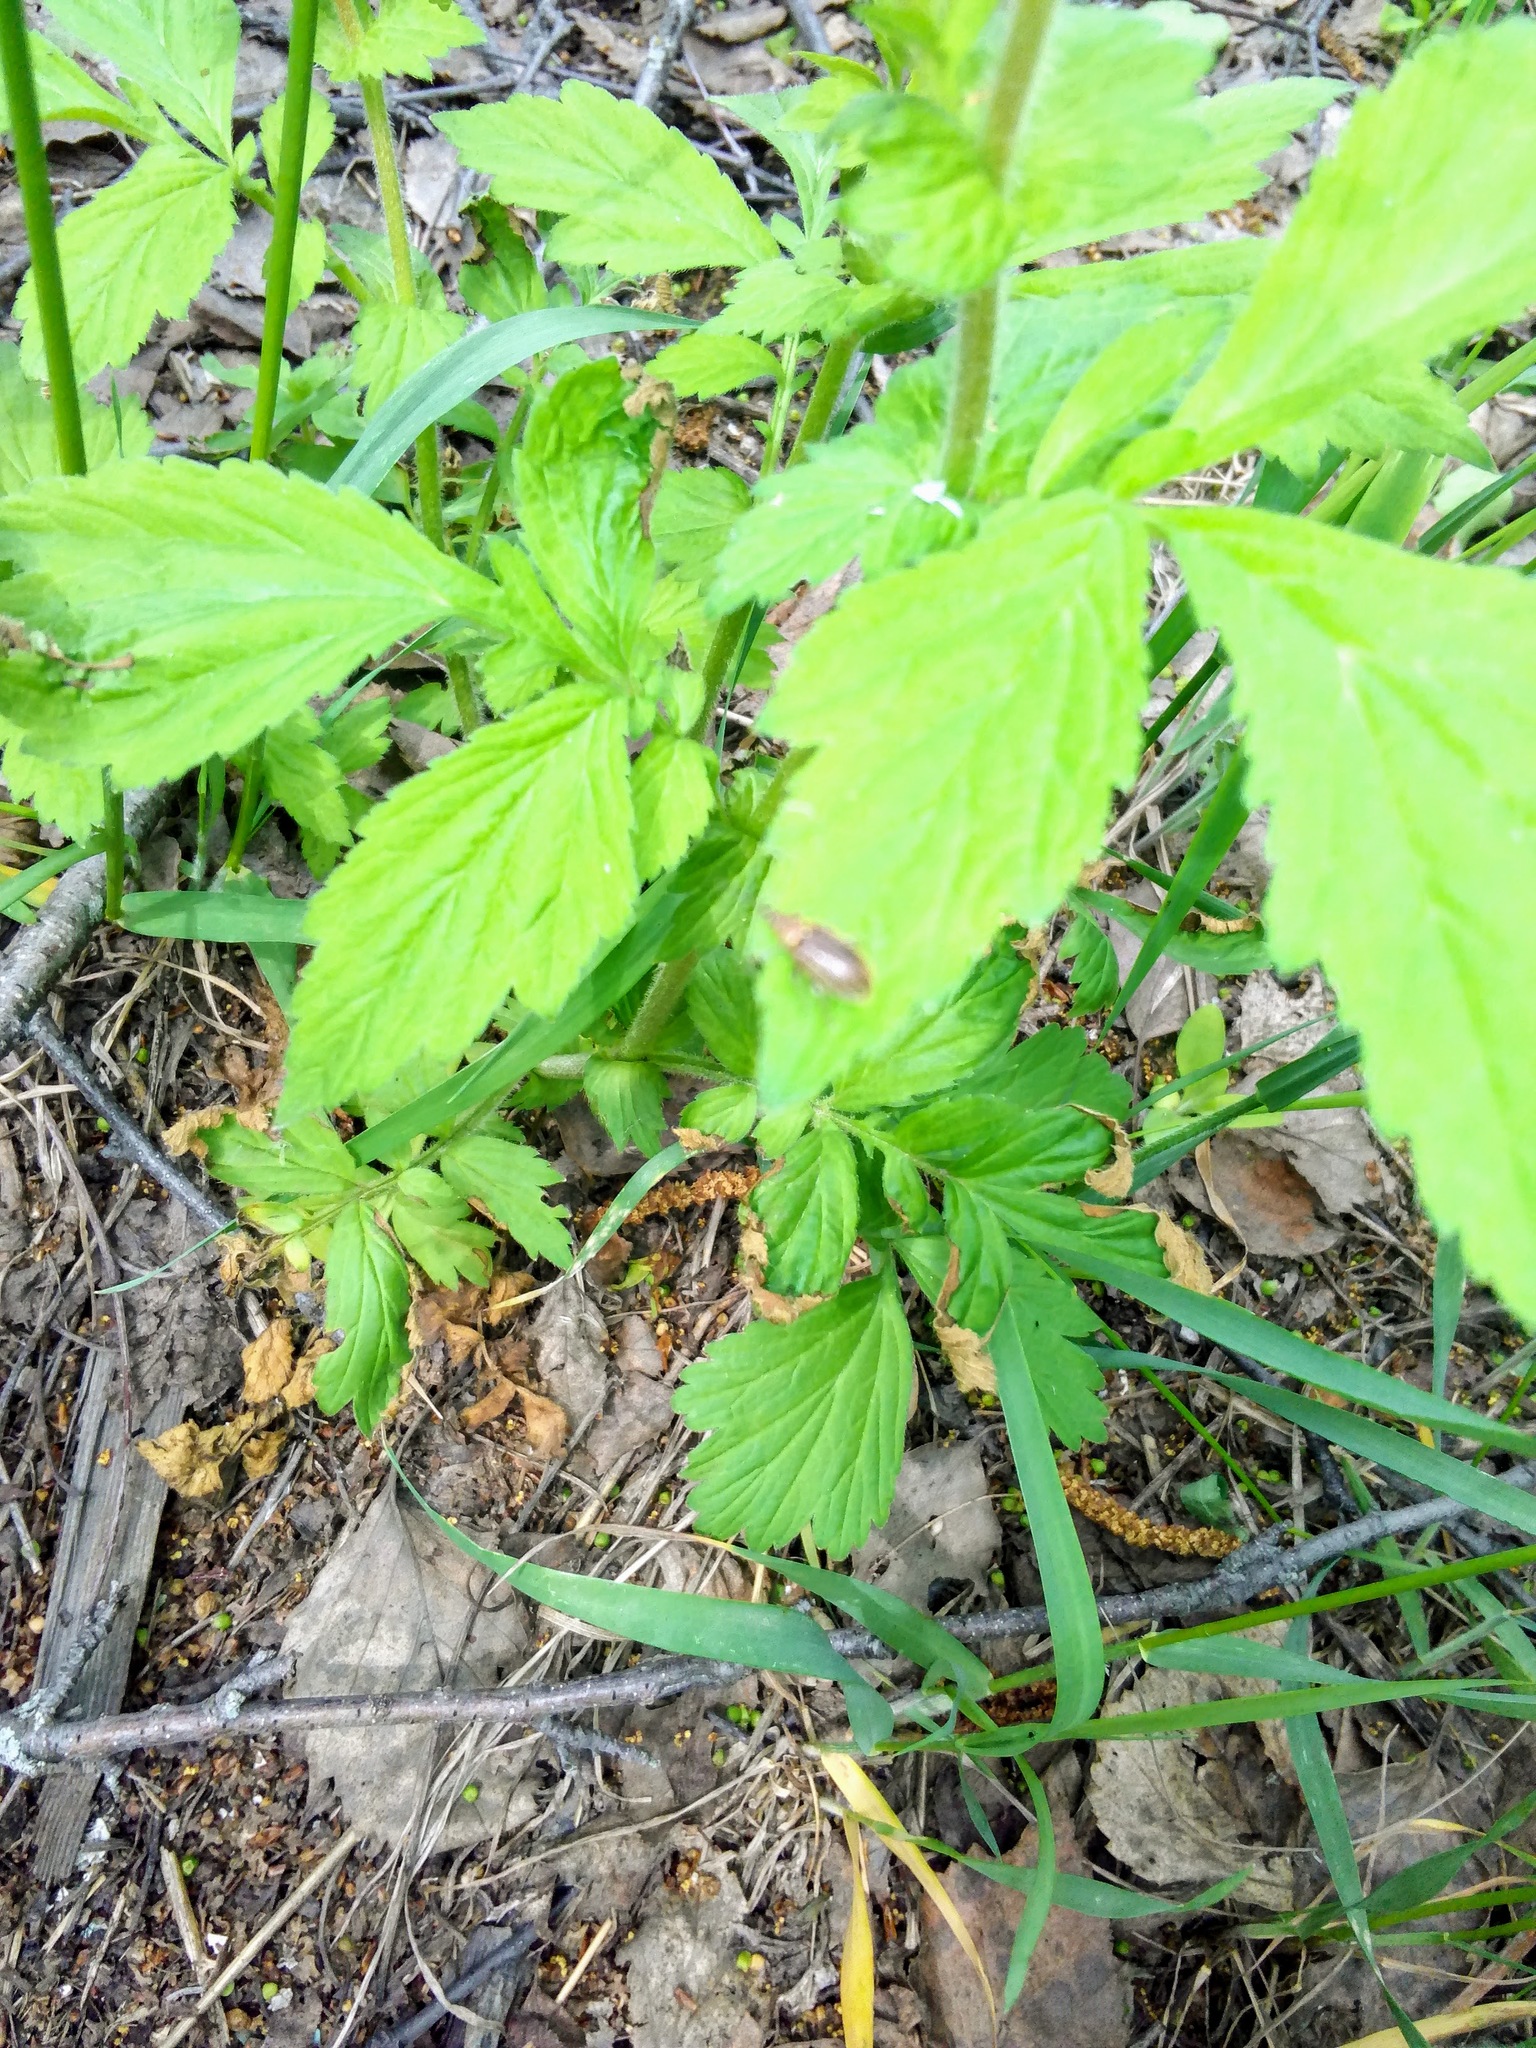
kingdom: Plantae
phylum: Tracheophyta
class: Magnoliopsida
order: Rosales
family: Rosaceae
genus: Geum
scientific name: Geum aleppicum
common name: Yellow avens
